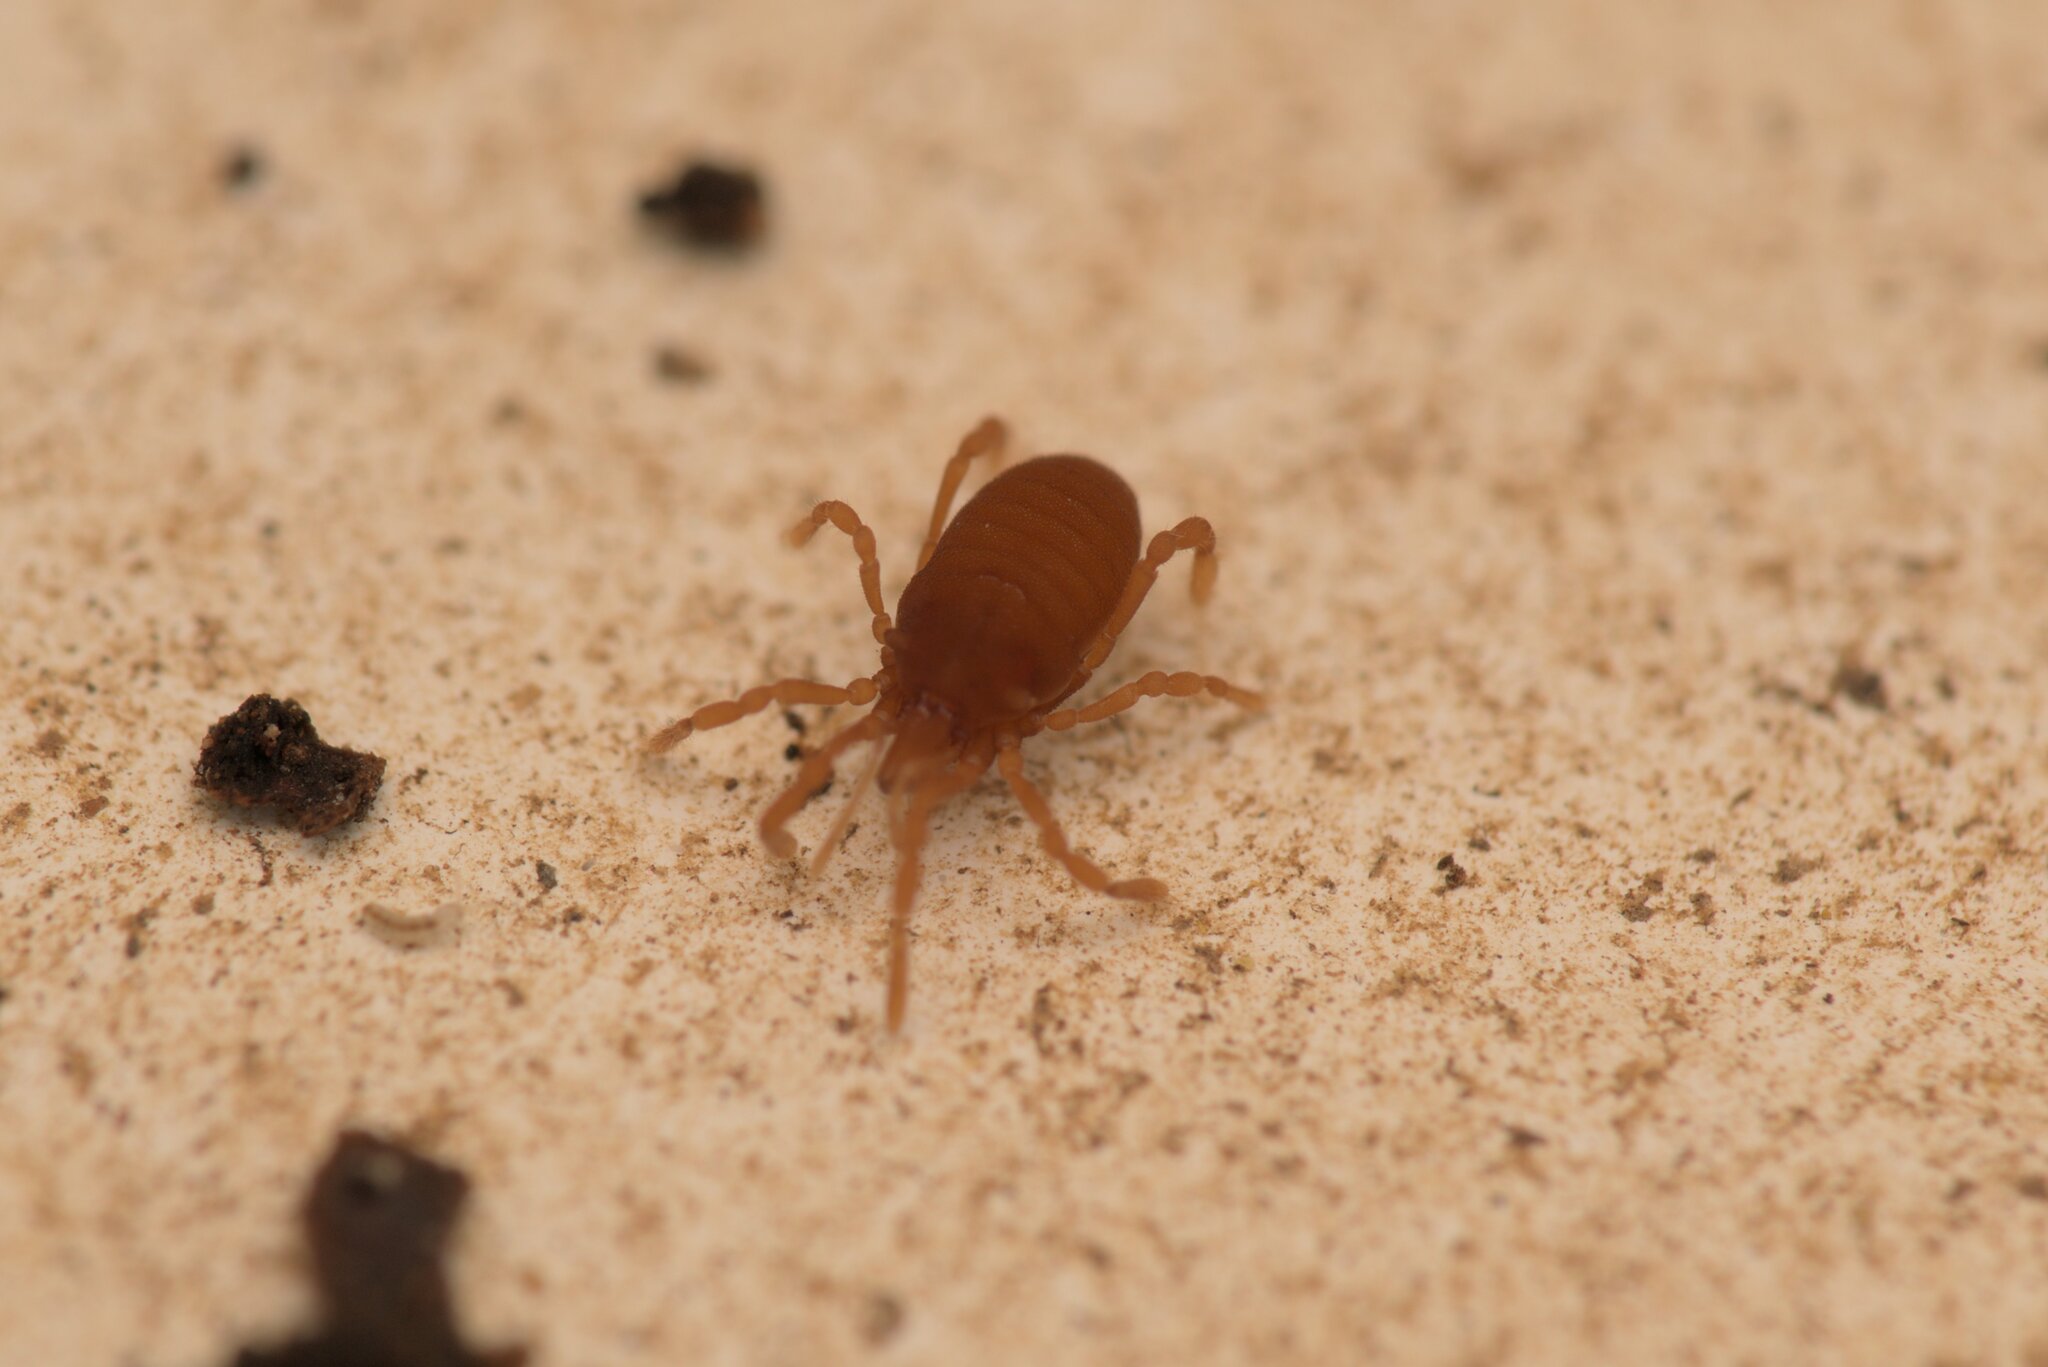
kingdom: Animalia
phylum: Arthropoda
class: Arachnida
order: Opiliones
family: Sironidae
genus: Siro
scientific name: Siro rubens
